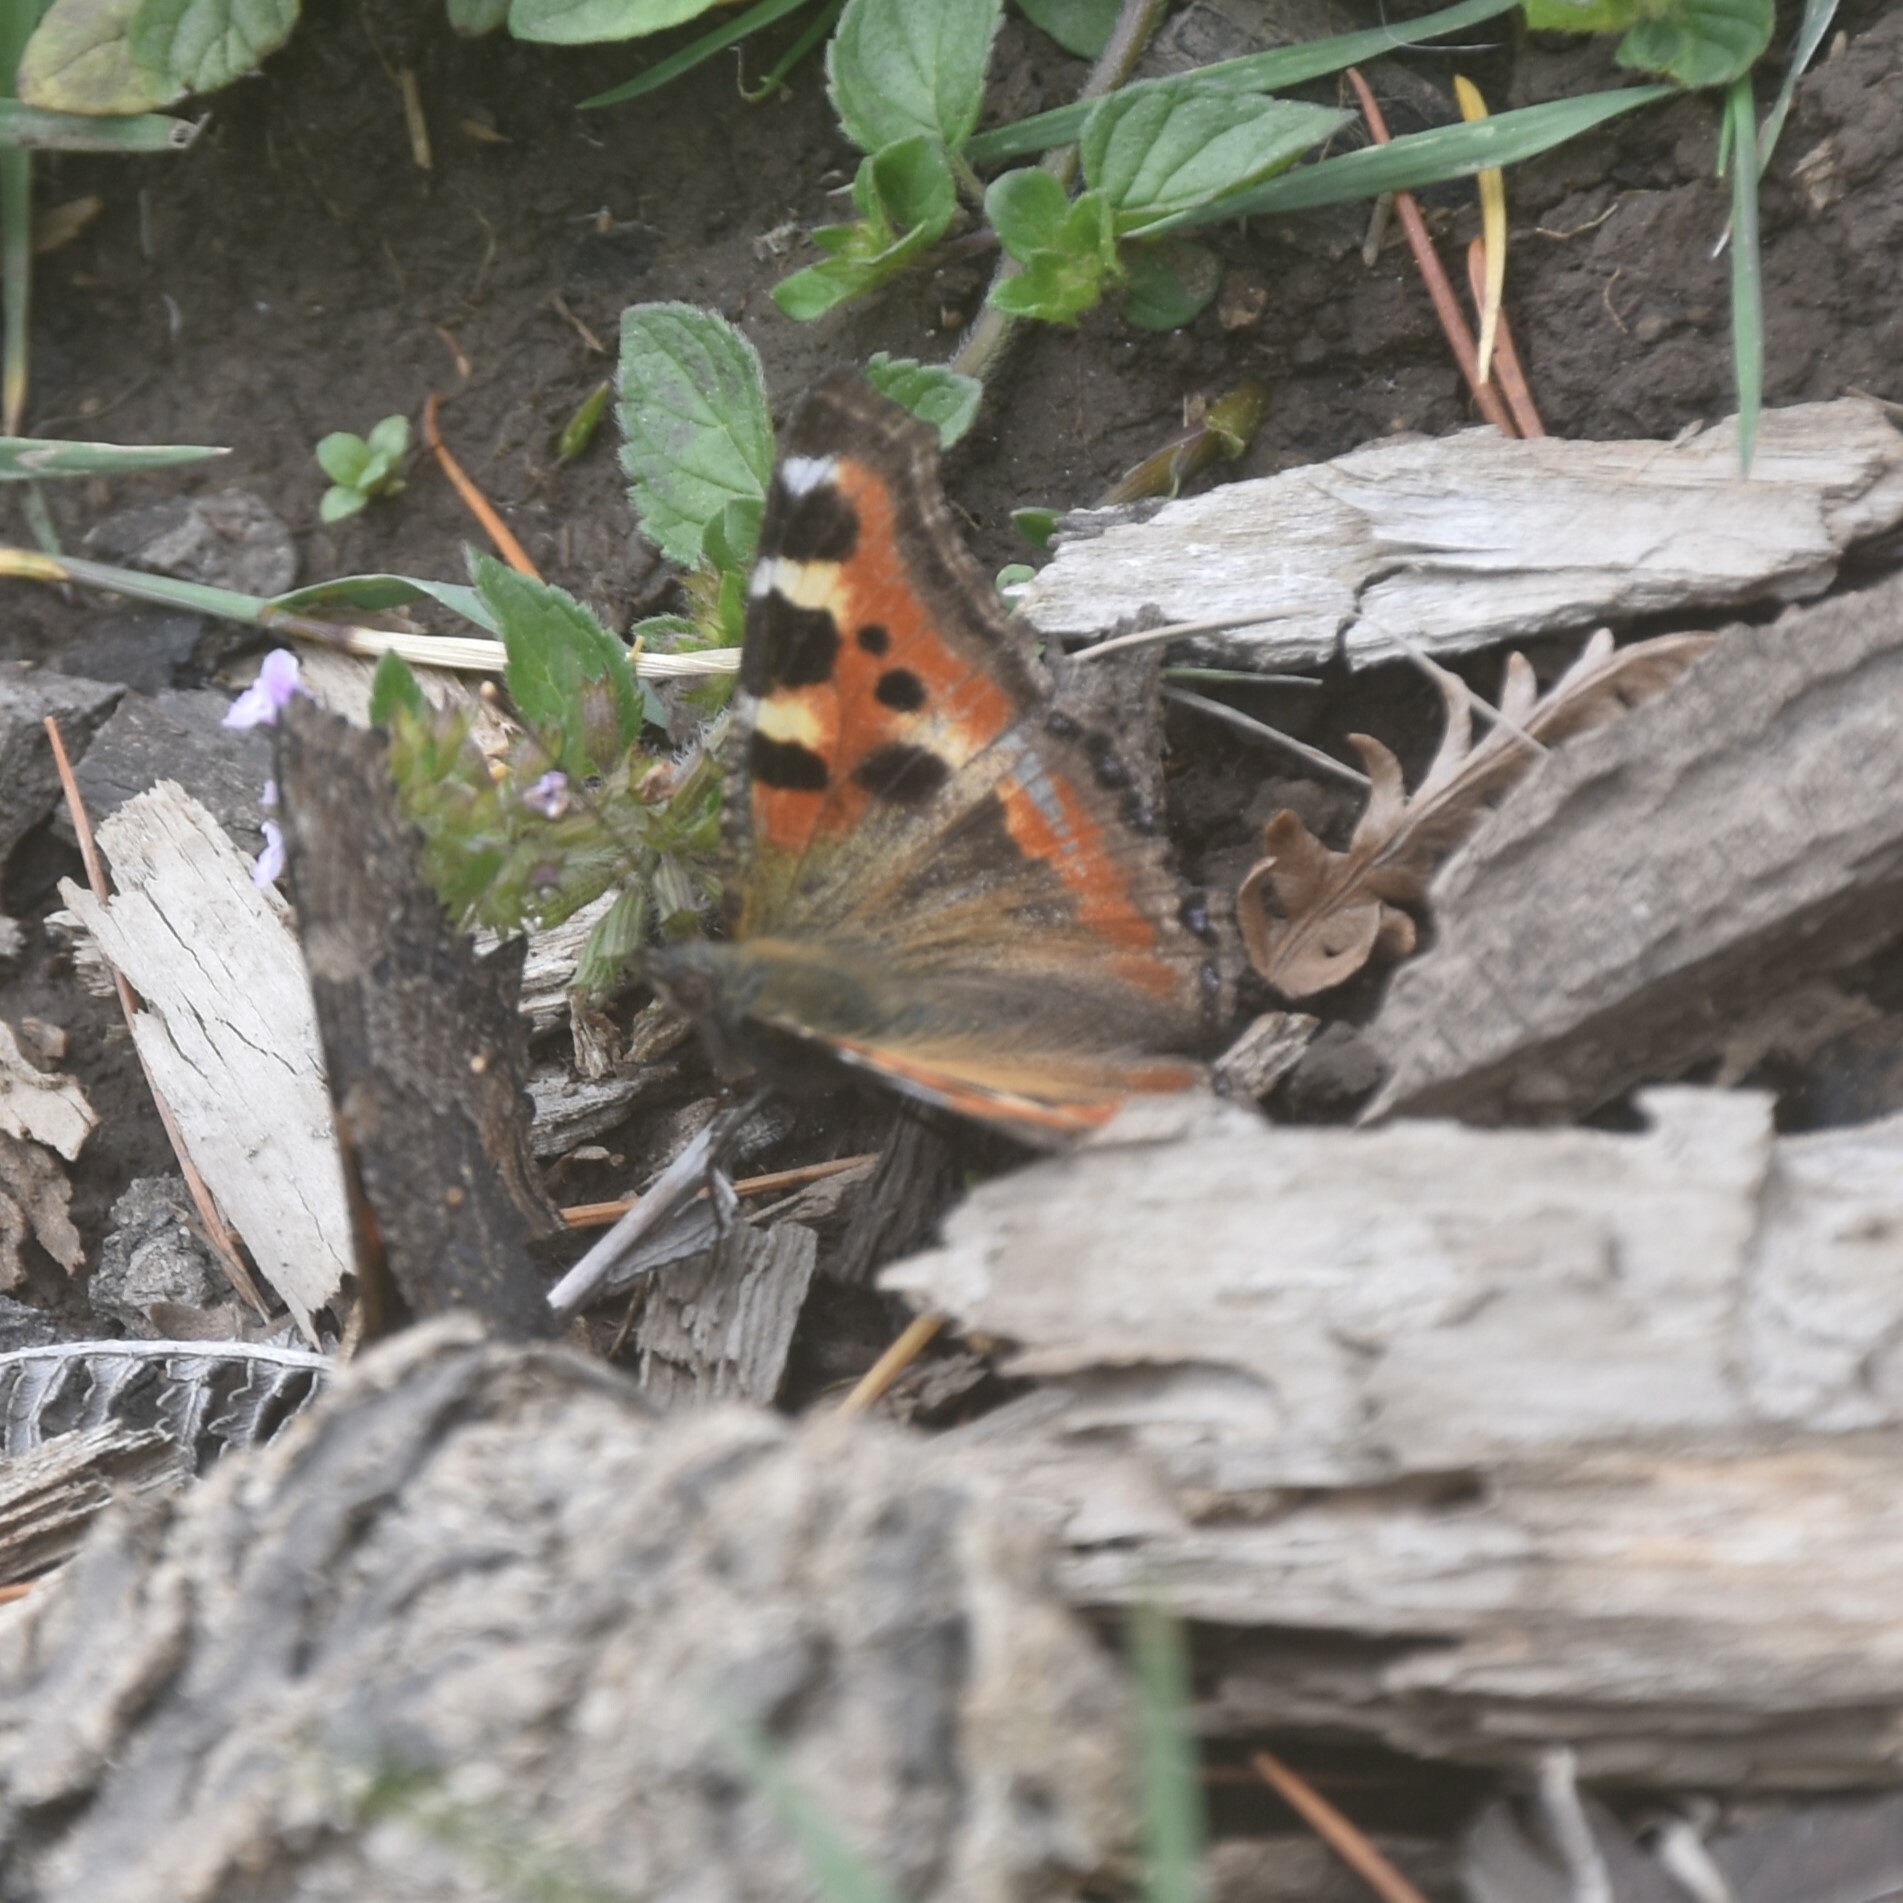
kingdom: Animalia
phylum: Arthropoda
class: Insecta
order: Lepidoptera
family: Nymphalidae
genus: Aglais
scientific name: Aglais caschmirensis
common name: Indian tortoiseshell
